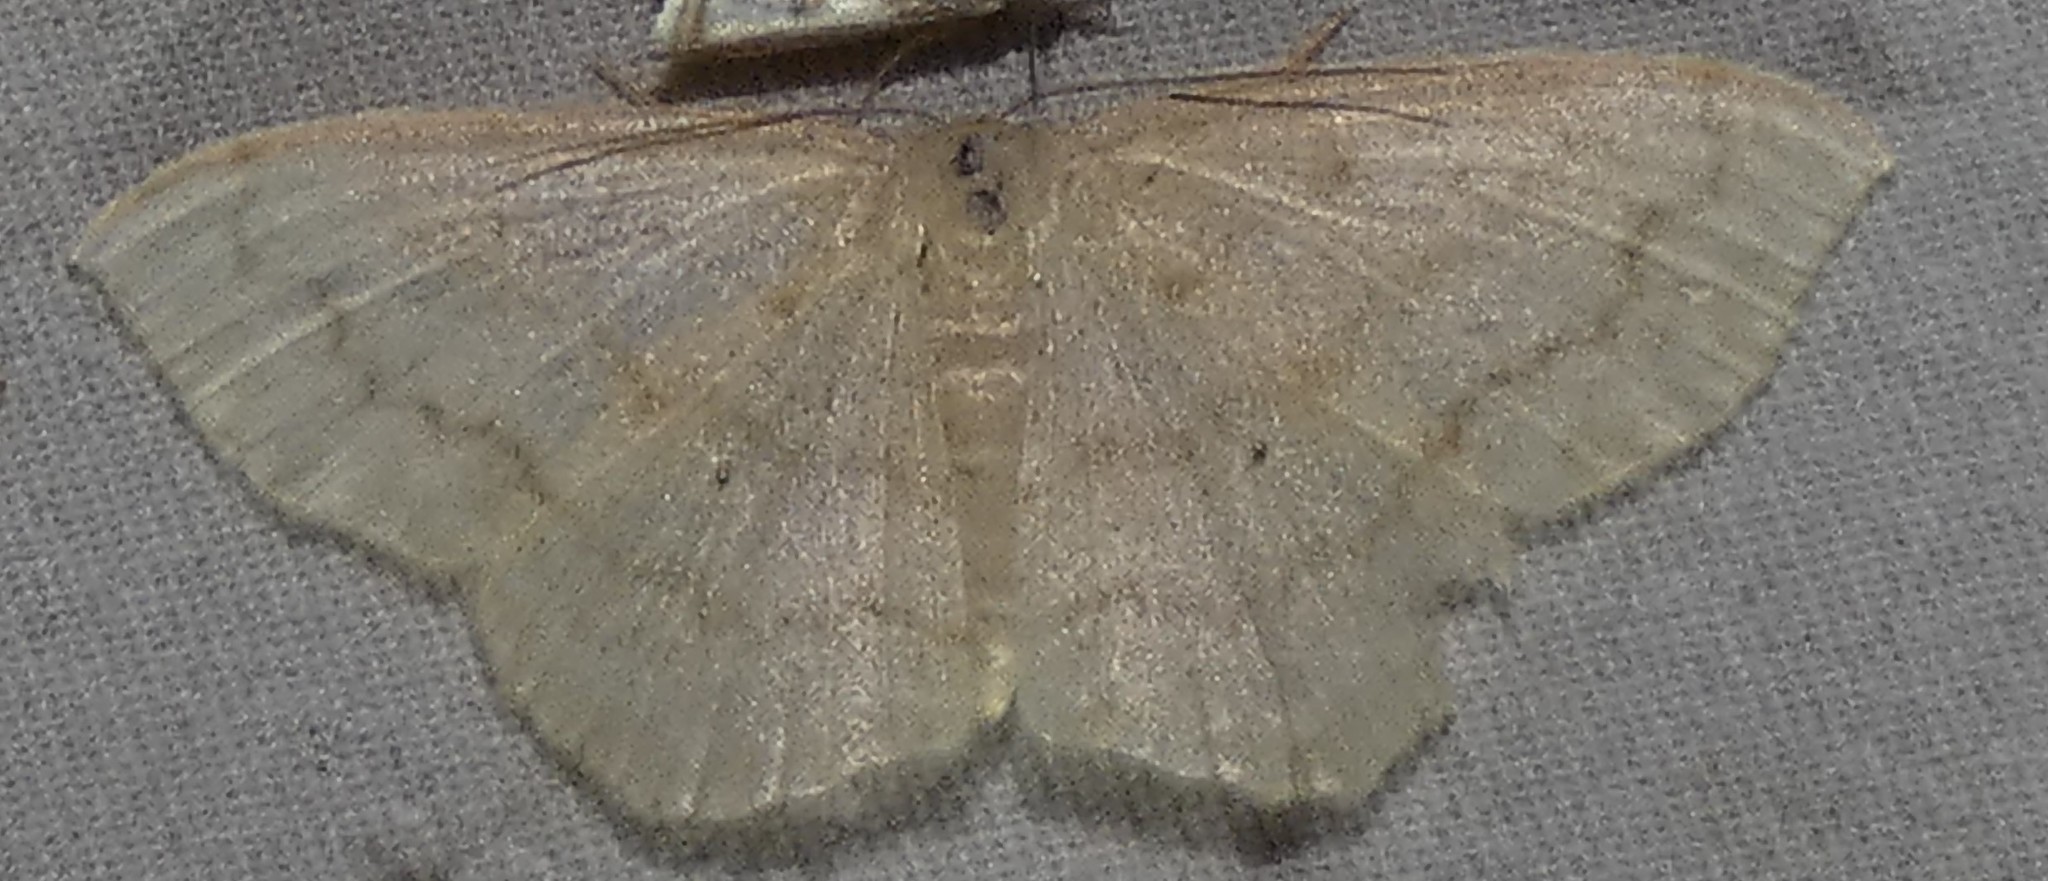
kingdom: Animalia
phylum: Arthropoda
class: Insecta
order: Lepidoptera
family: Geometridae
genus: Scopula
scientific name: Scopula limboundata
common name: Large lace border
